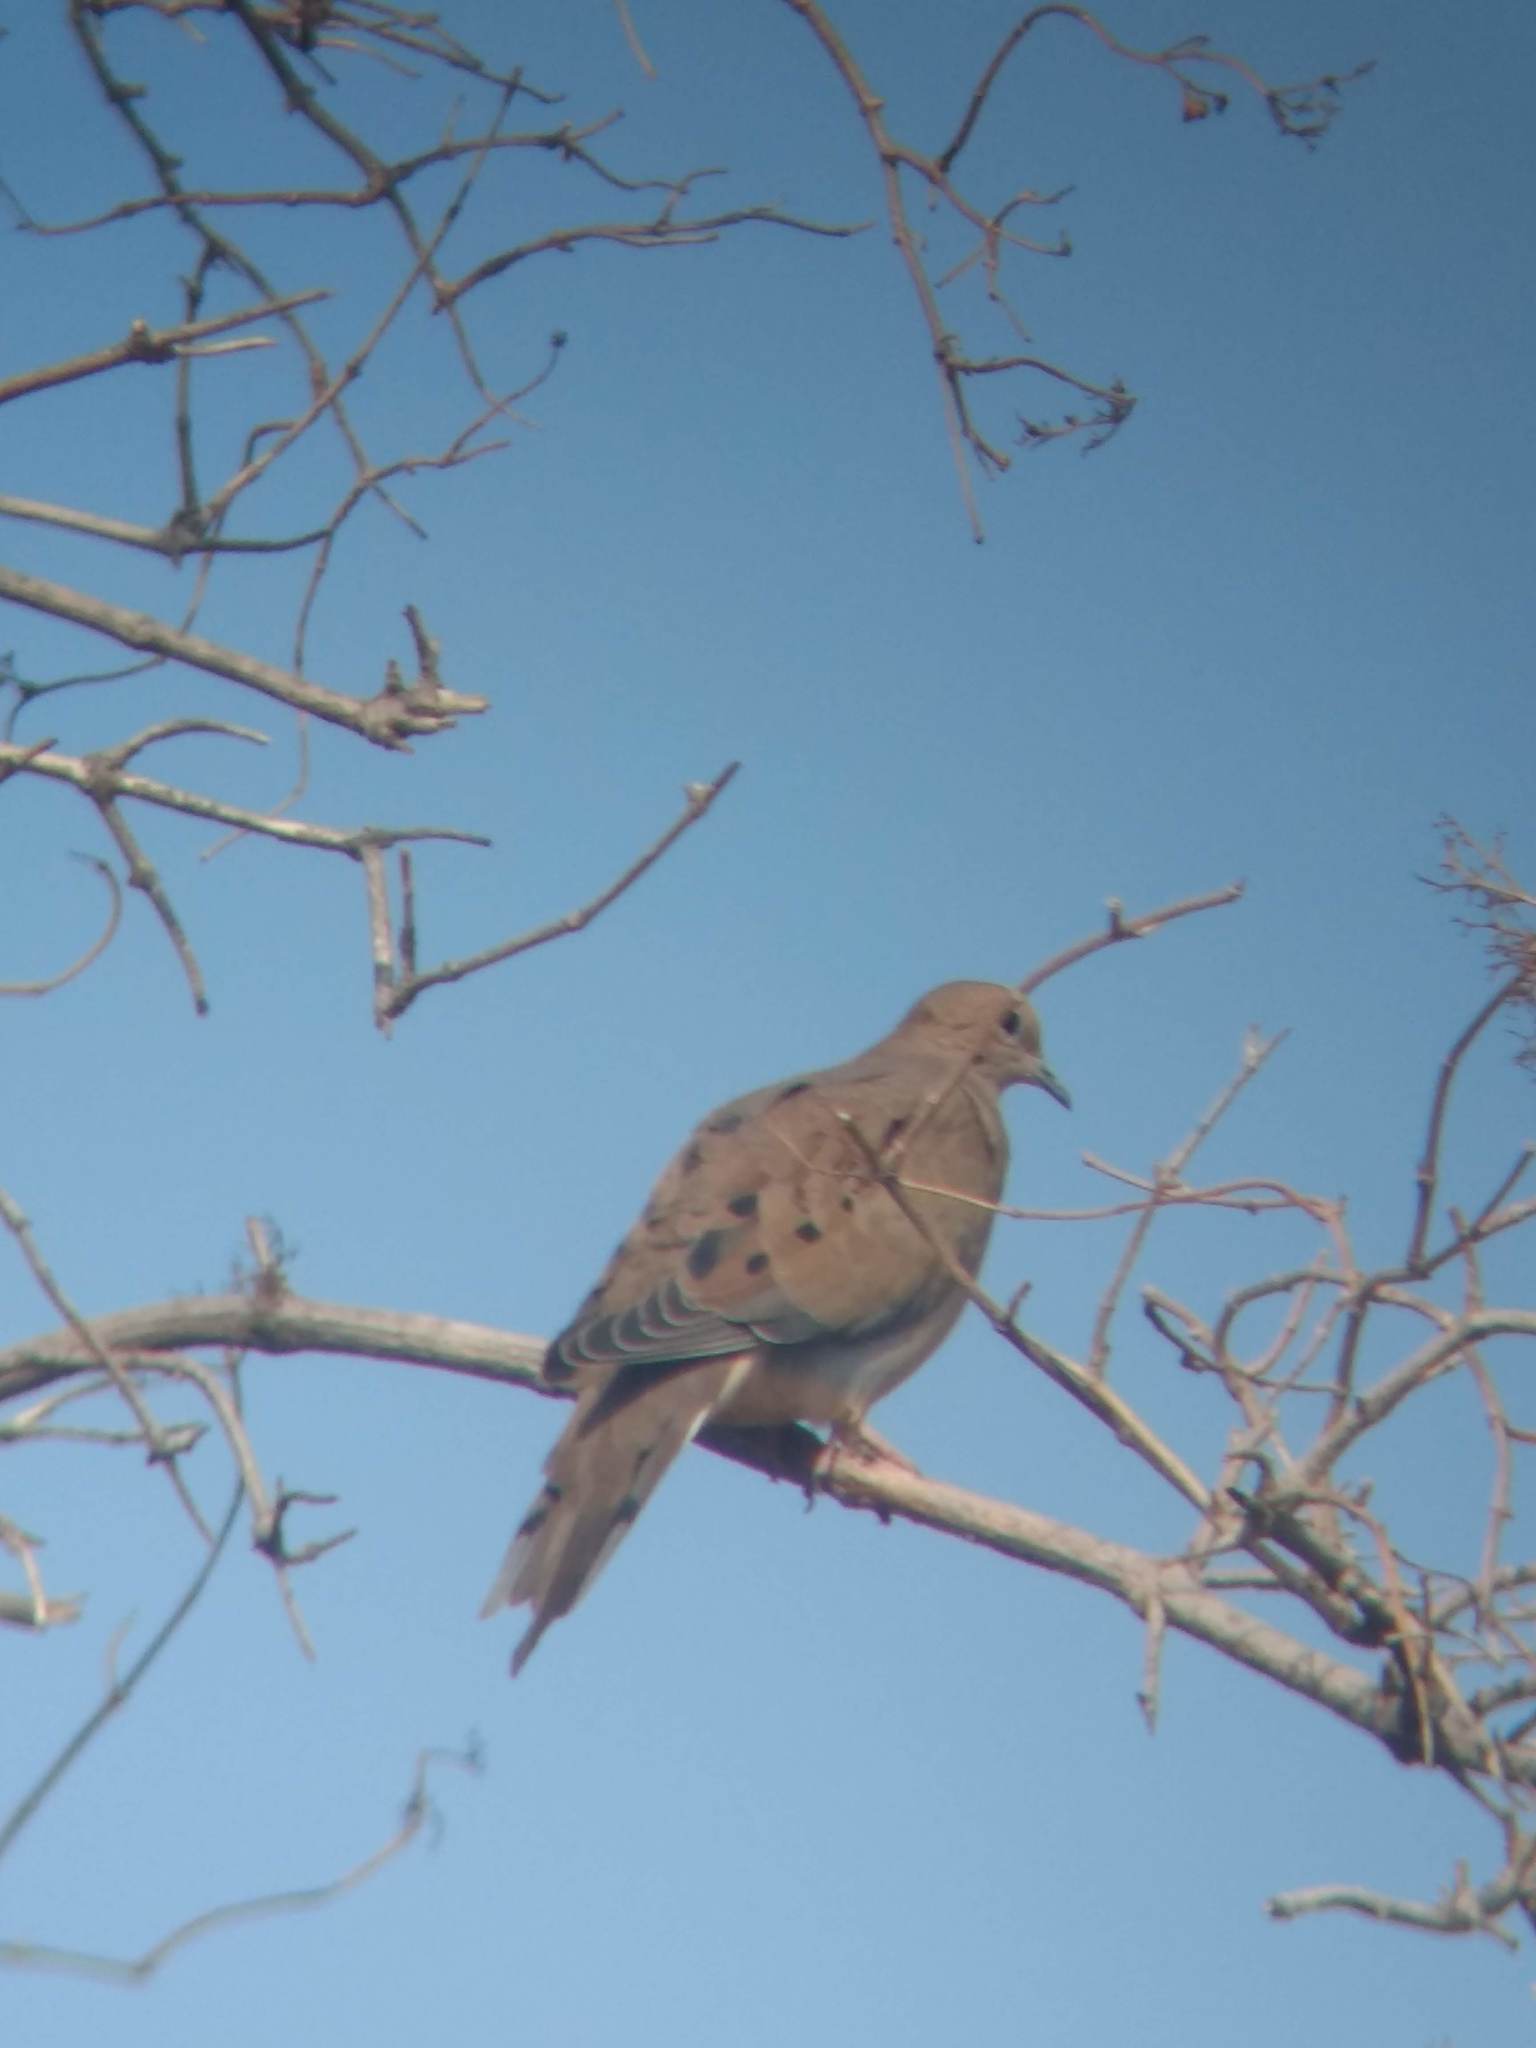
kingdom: Animalia
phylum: Chordata
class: Aves
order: Columbiformes
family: Columbidae
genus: Zenaida
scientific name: Zenaida macroura
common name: Mourning dove
